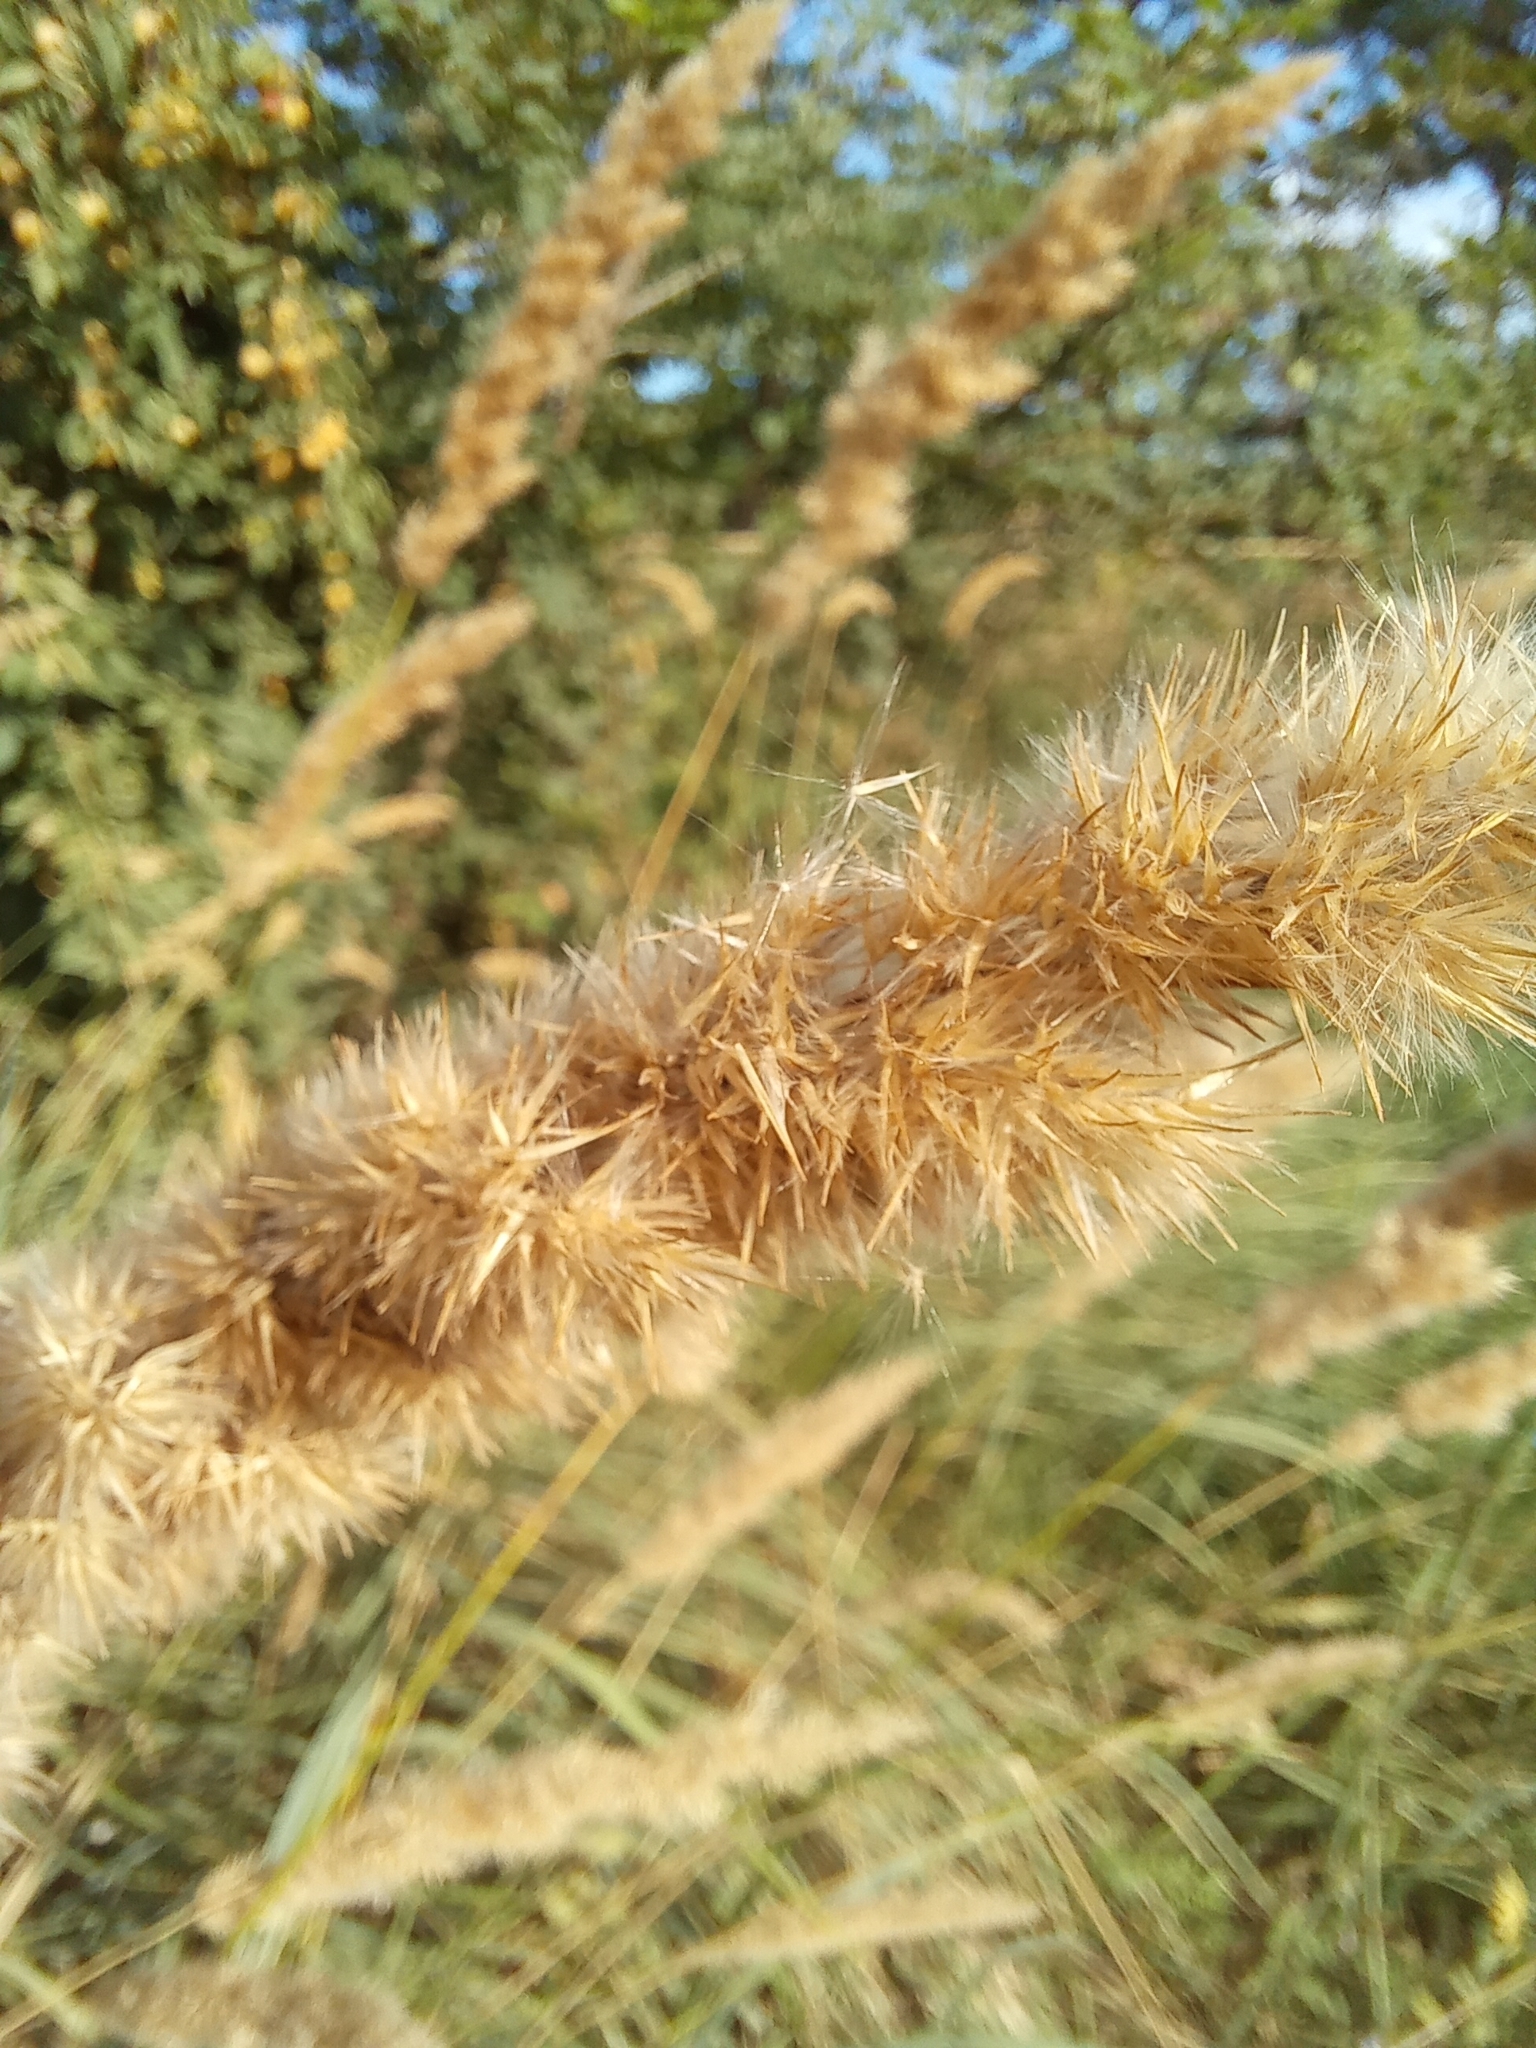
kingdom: Plantae
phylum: Tracheophyta
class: Liliopsida
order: Poales
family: Poaceae
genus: Calamagrostis
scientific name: Calamagrostis epigejos
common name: Wood small-reed
